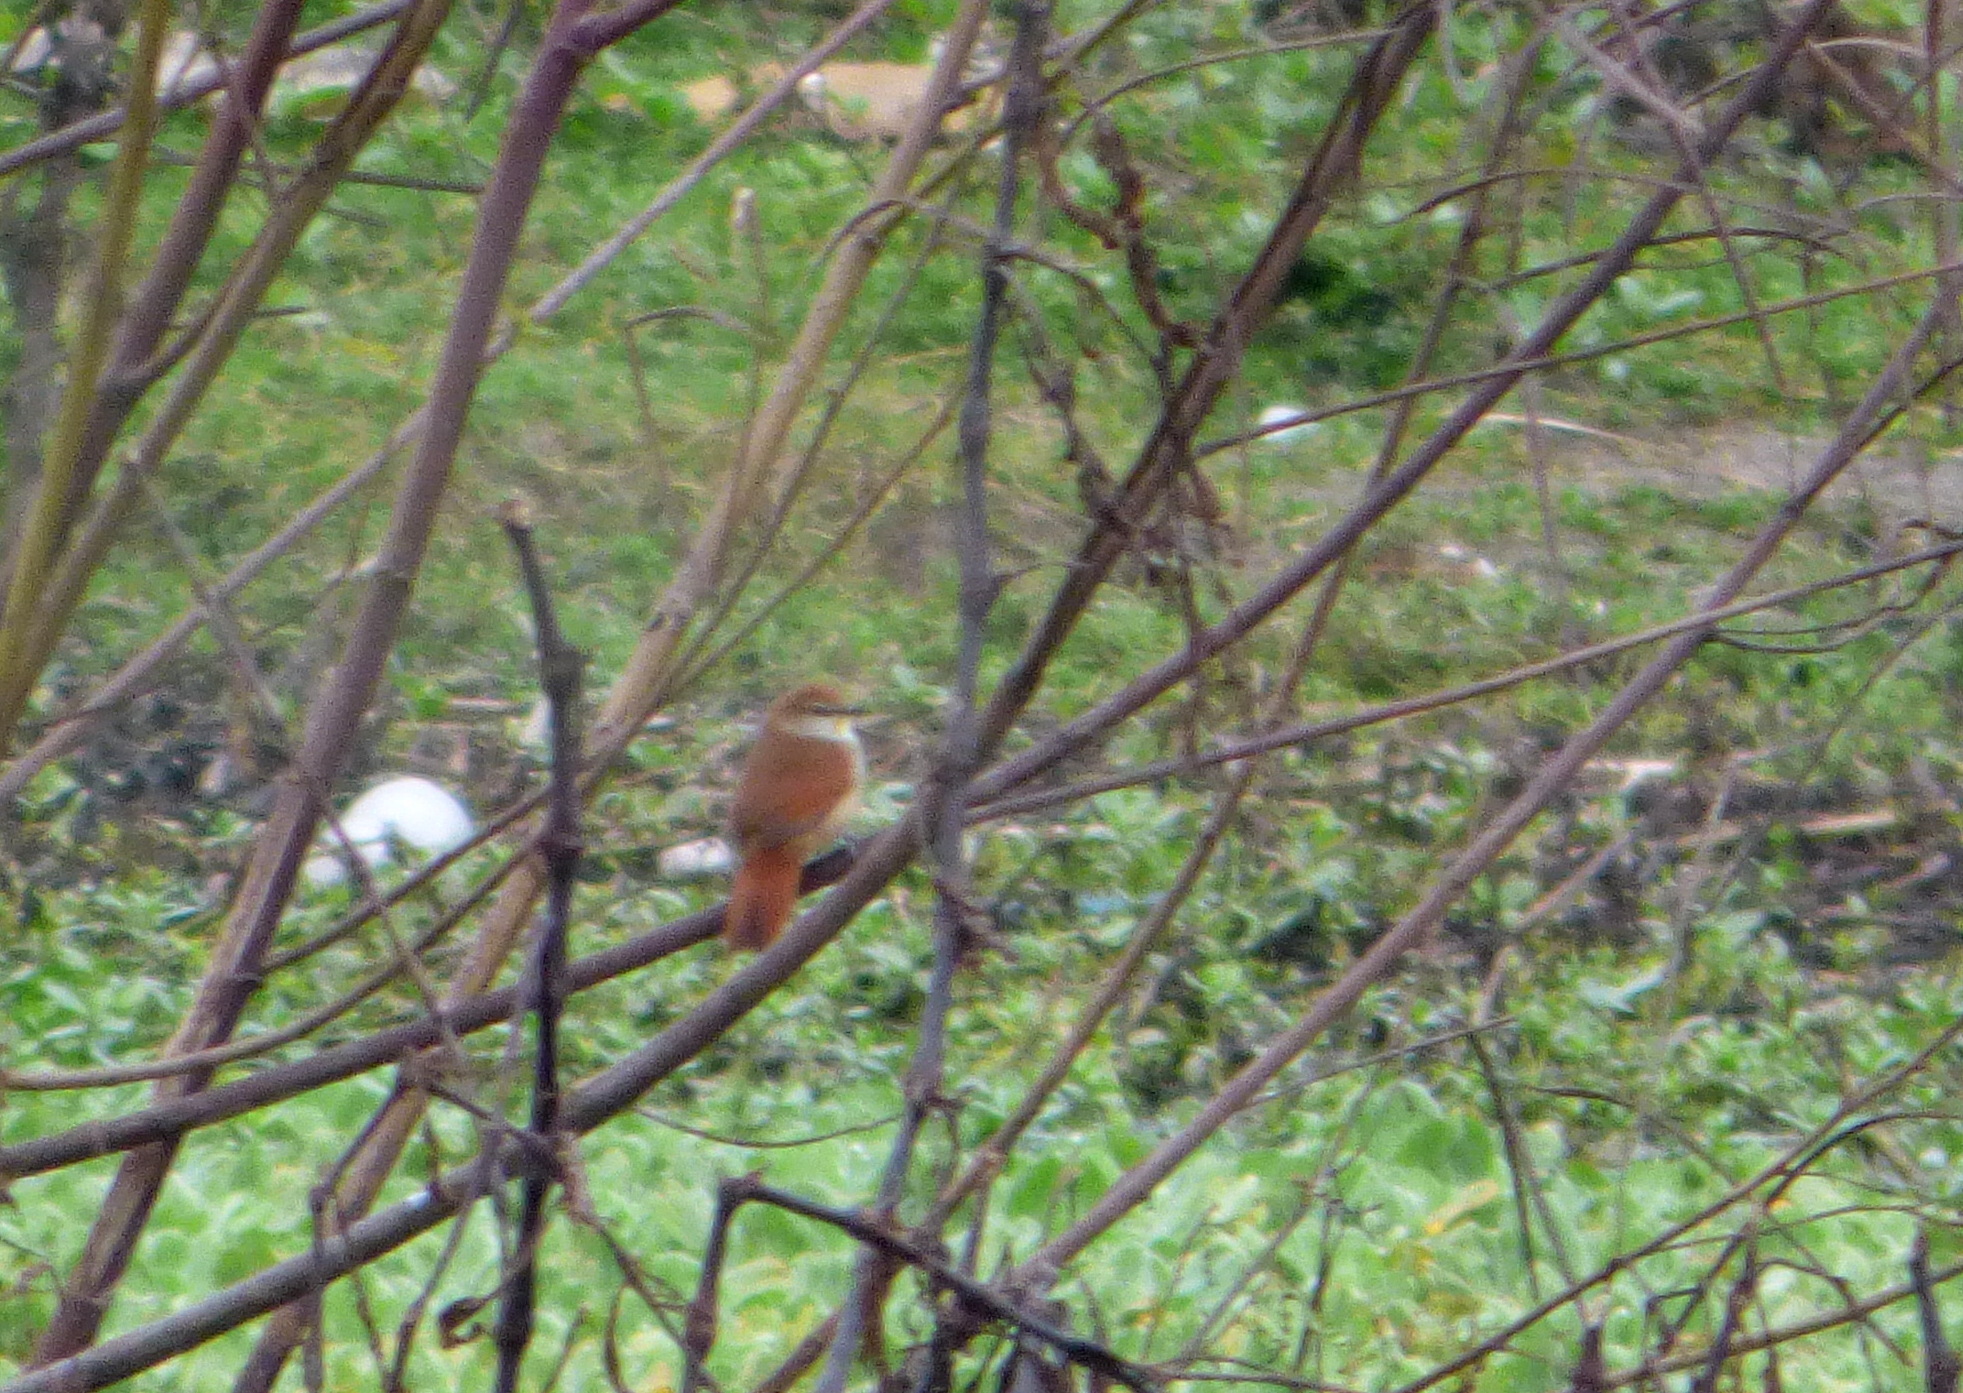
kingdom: Animalia
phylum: Chordata
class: Aves
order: Passeriformes
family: Furnariidae
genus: Certhiaxis
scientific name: Certhiaxis cinnamomeus
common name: Yellow-chinned spinetail
